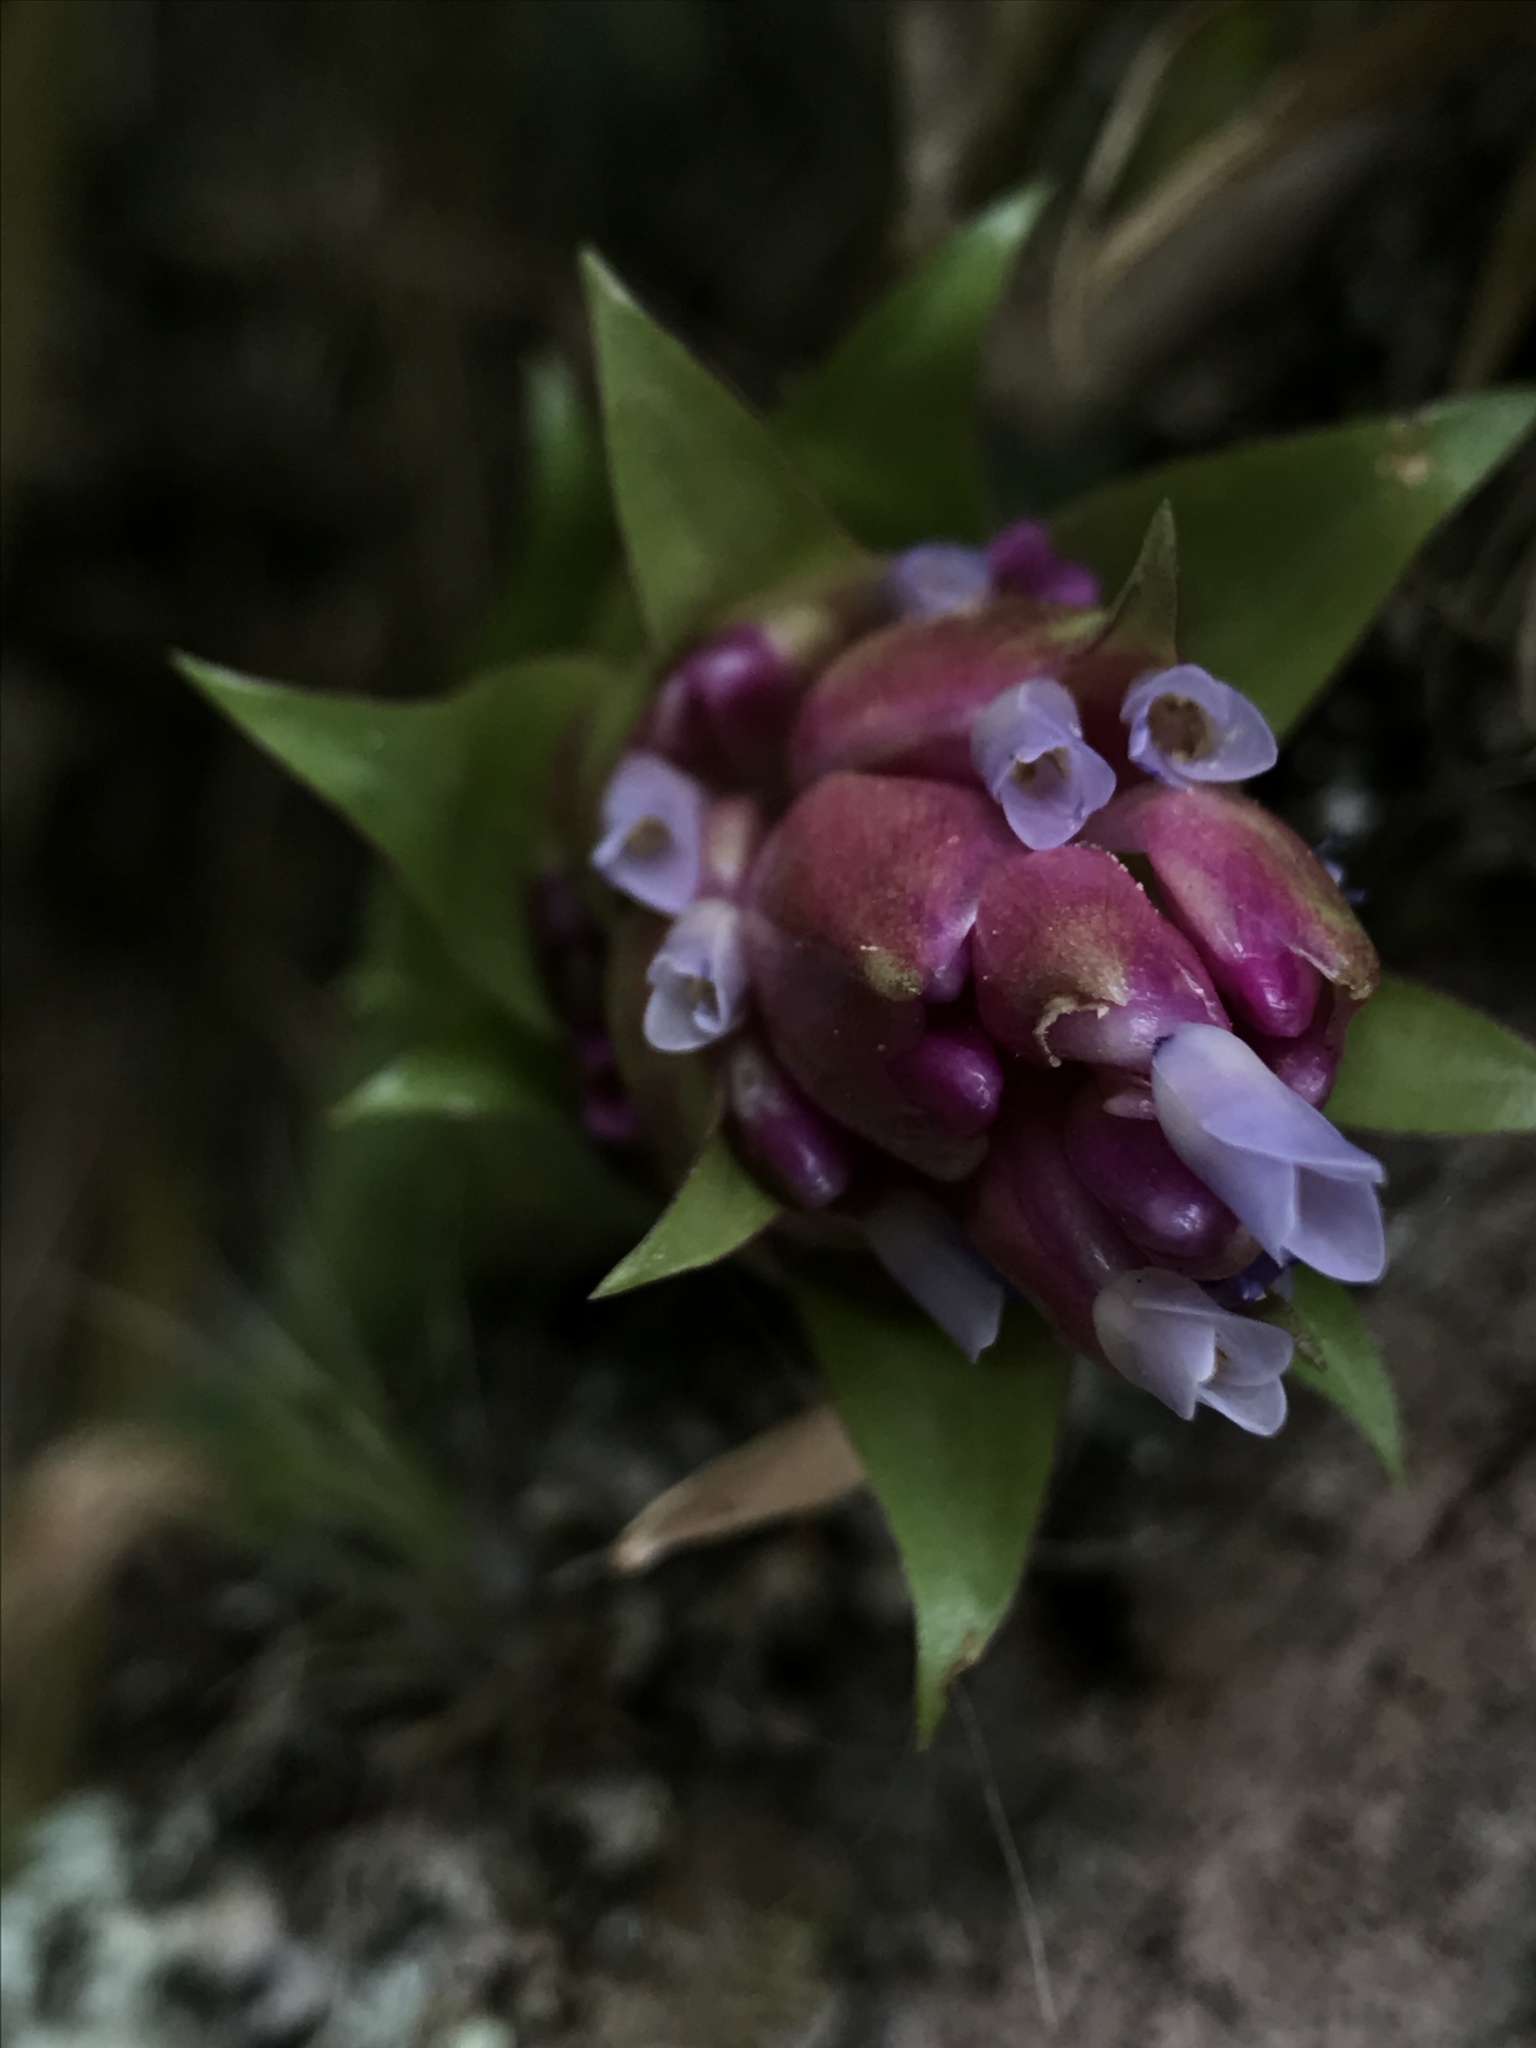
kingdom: Plantae
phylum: Tracheophyta
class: Liliopsida
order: Poales
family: Bromeliaceae
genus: Tillandsia
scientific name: Tillandsia biflora
